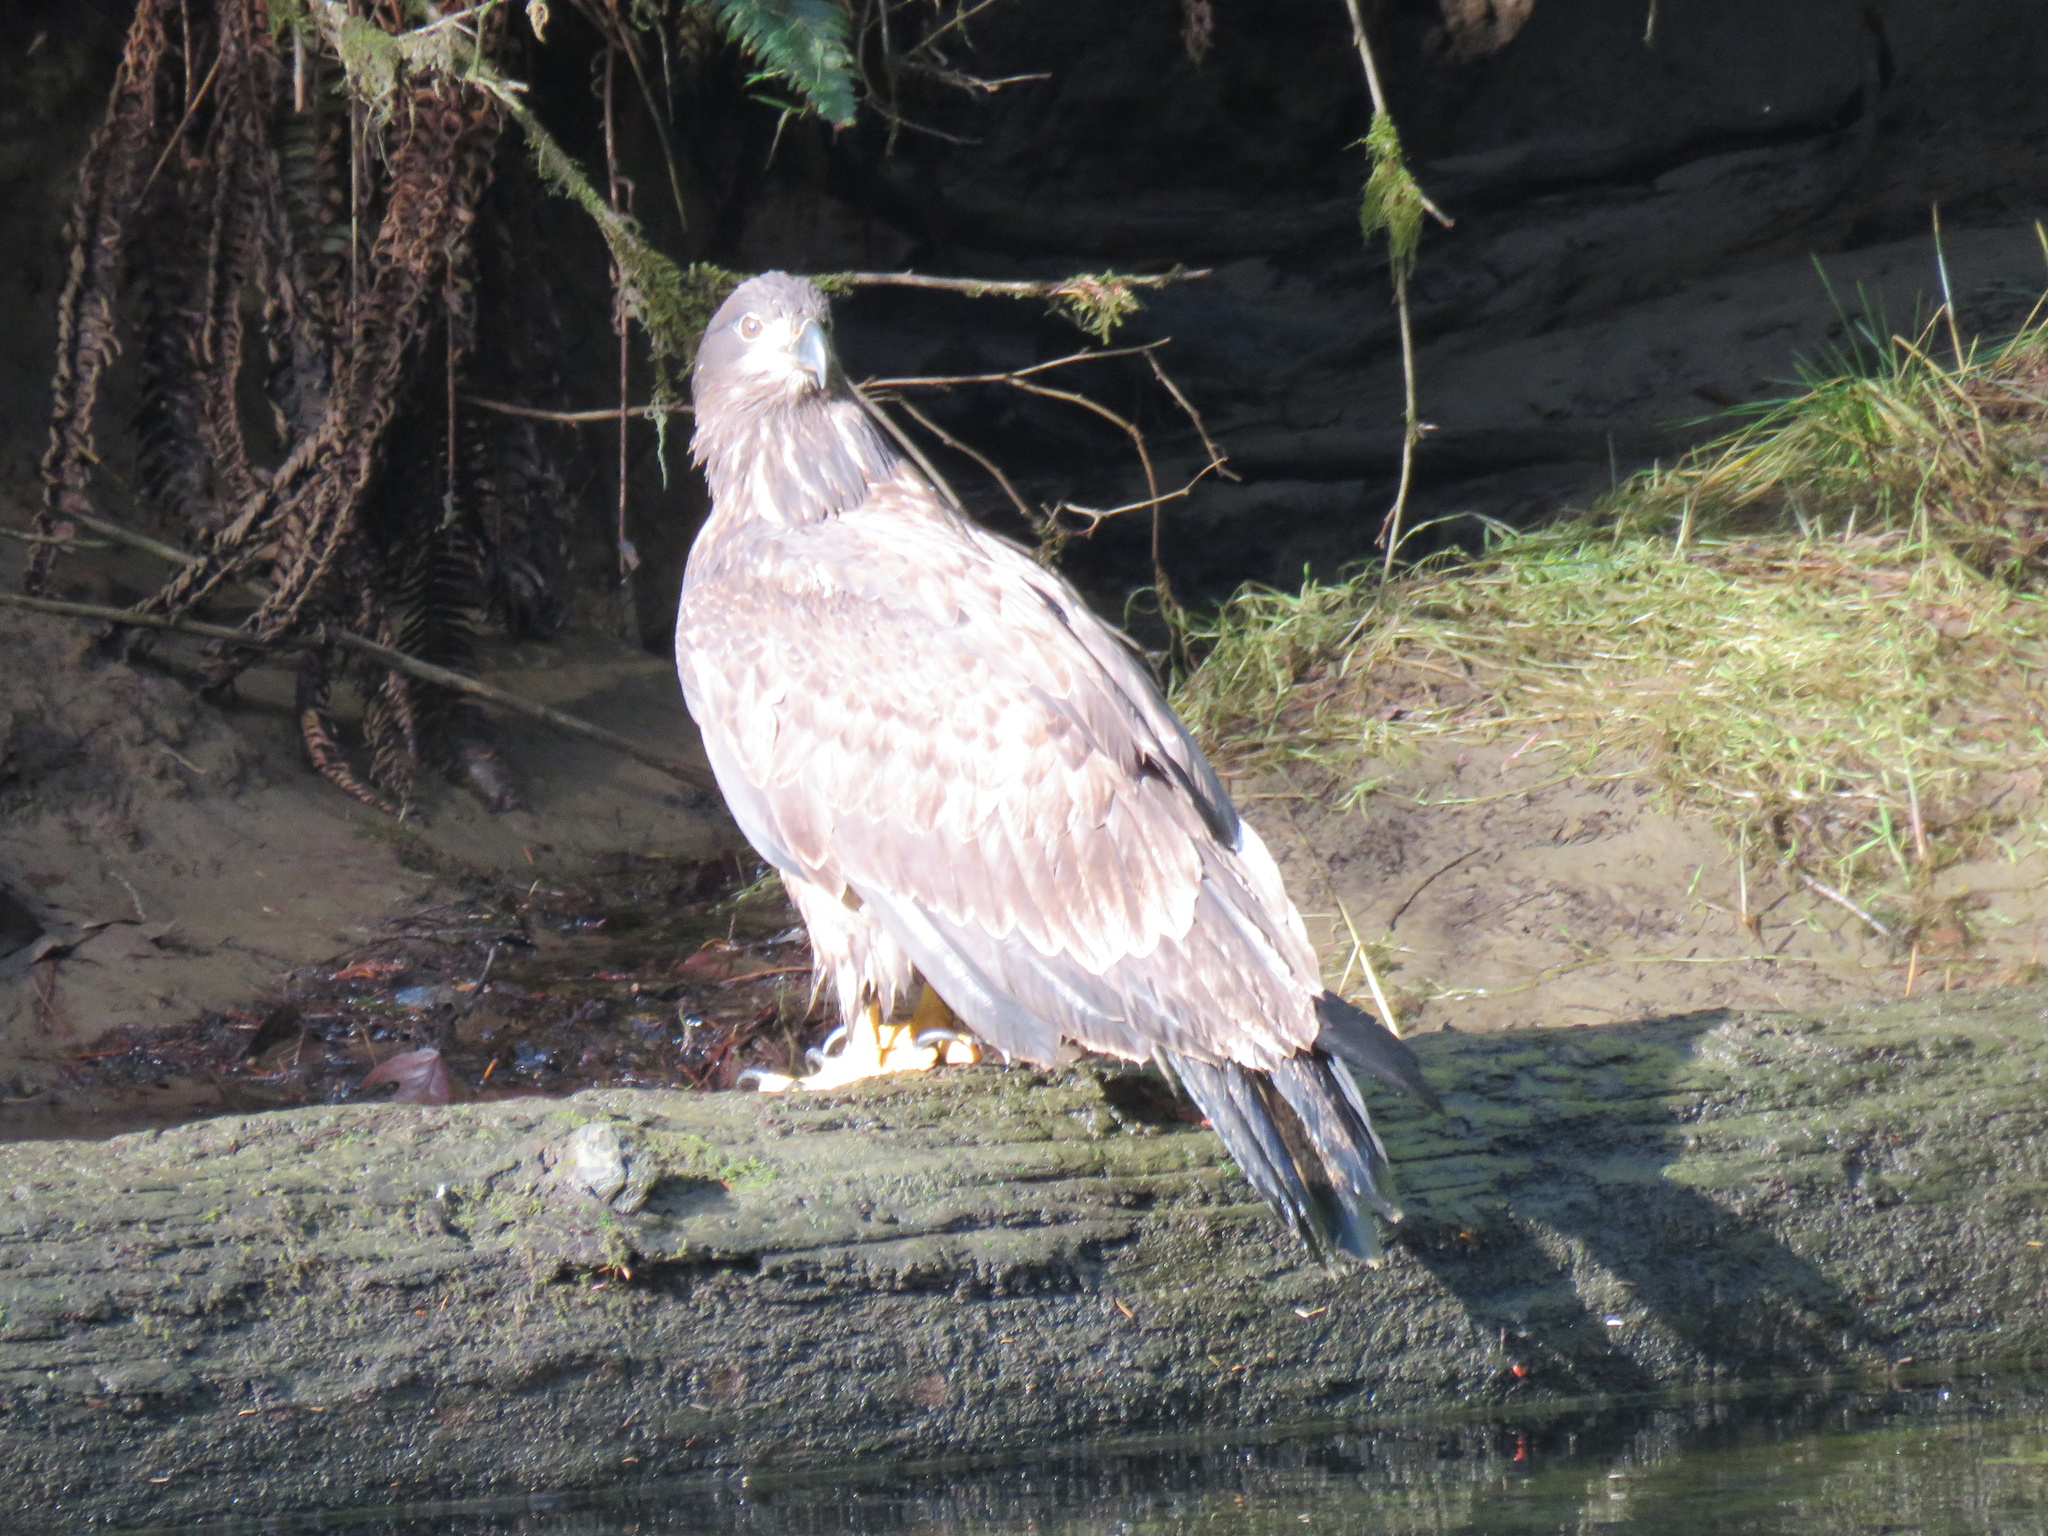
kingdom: Animalia
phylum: Chordata
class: Aves
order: Accipitriformes
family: Accipitridae
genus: Haliaeetus
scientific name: Haliaeetus leucocephalus
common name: Bald eagle
